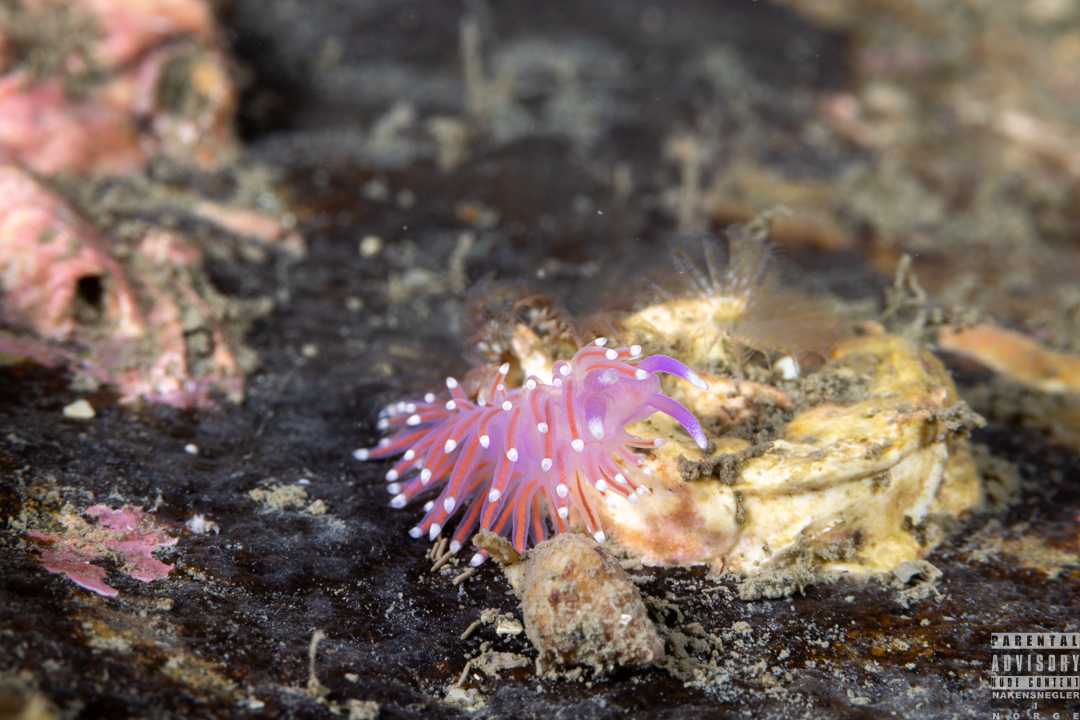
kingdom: Animalia
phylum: Mollusca
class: Gastropoda
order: Nudibranchia
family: Flabellinidae
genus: Edmundsella
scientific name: Edmundsella pedata
